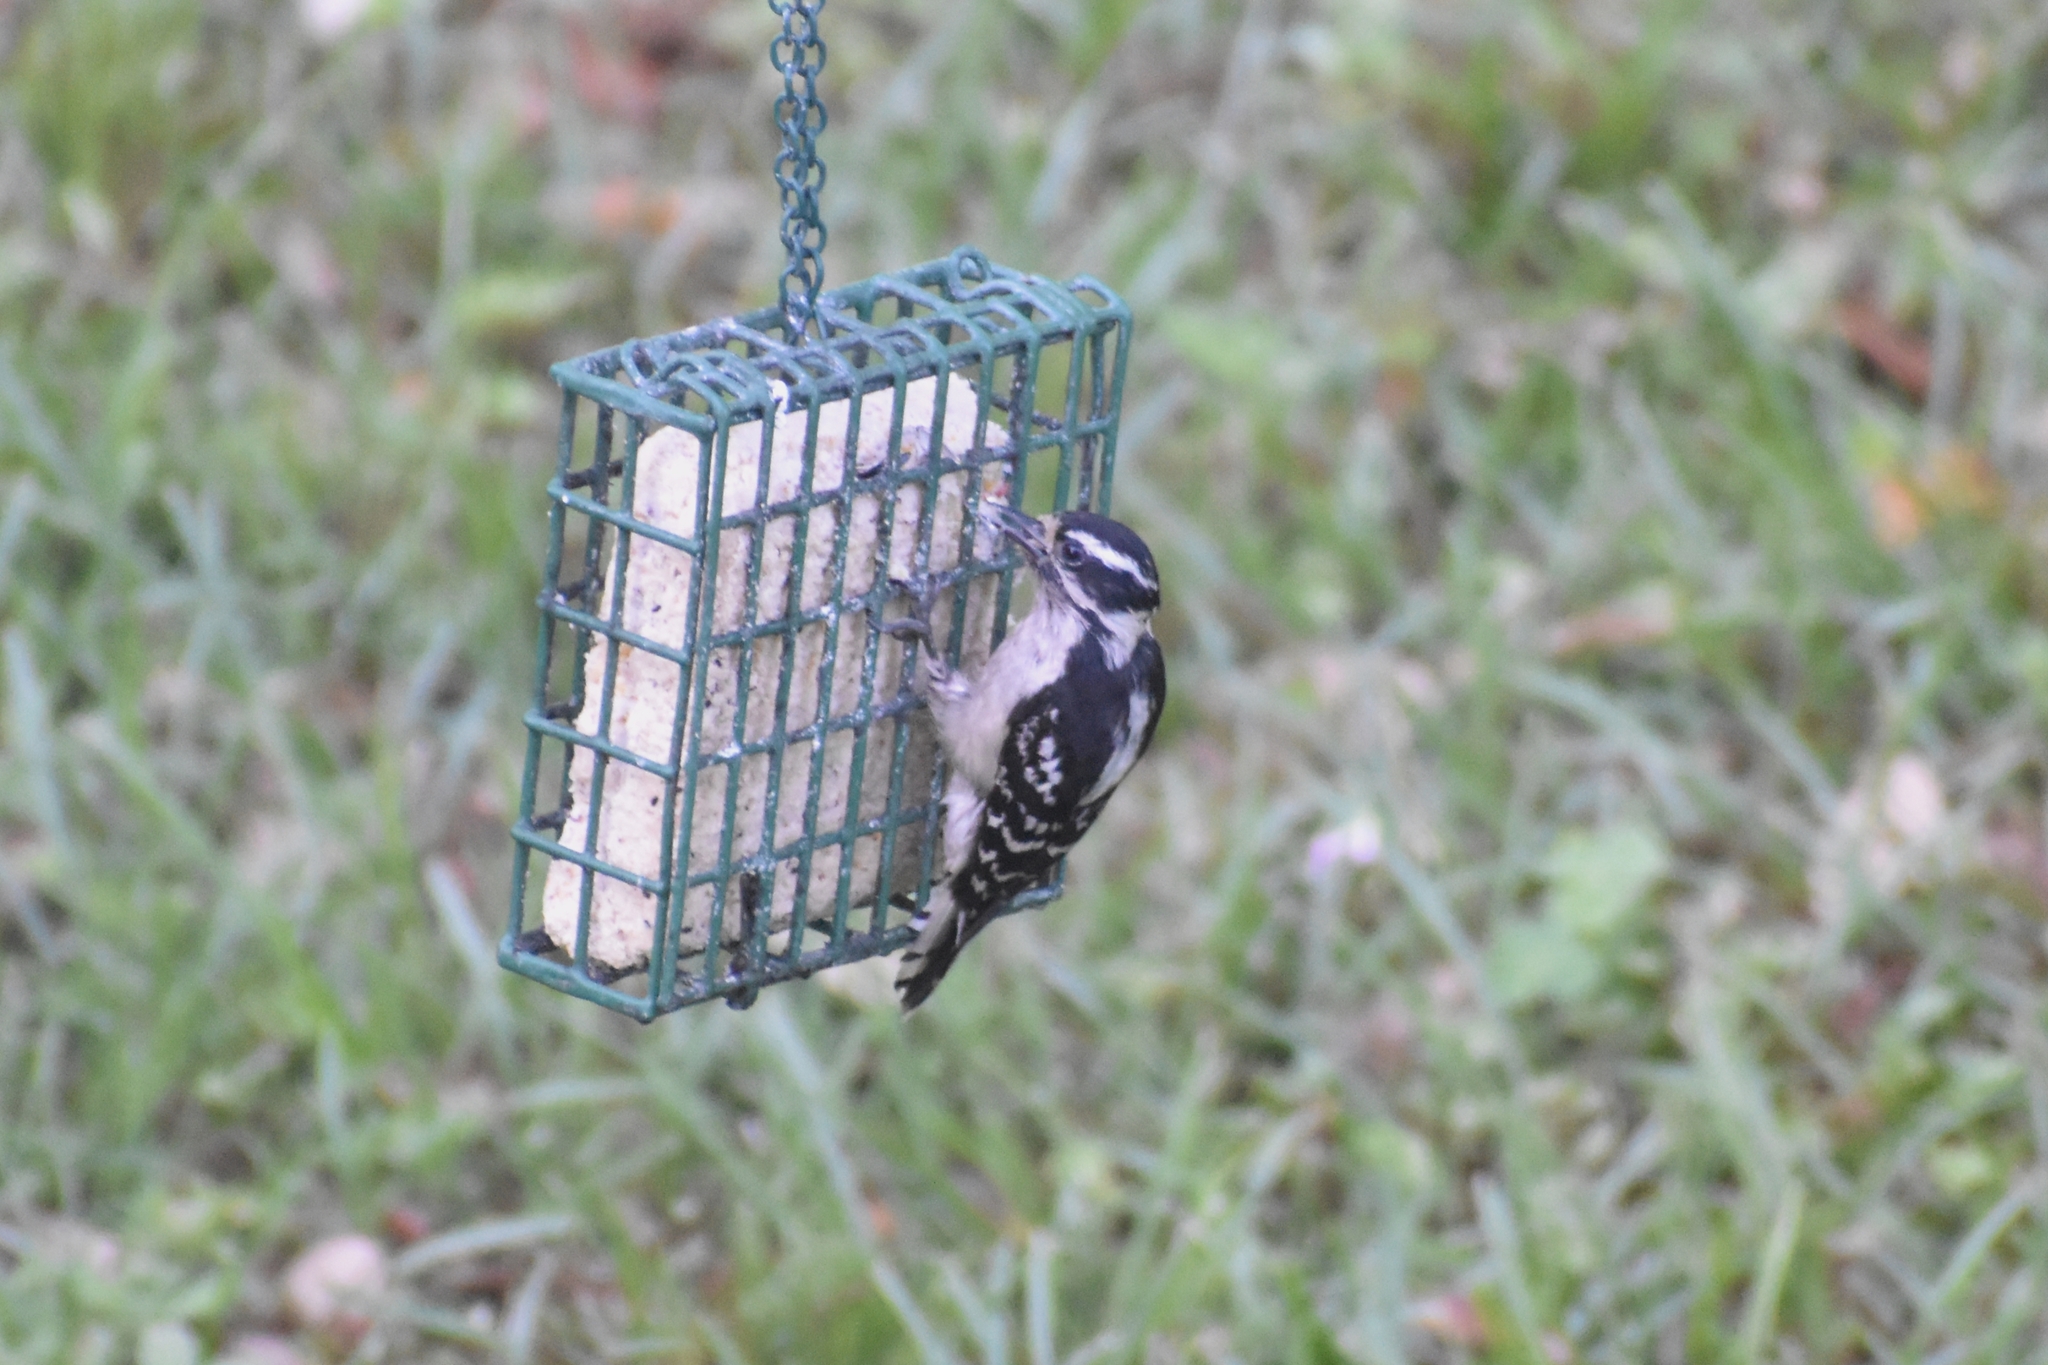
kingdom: Animalia
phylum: Chordata
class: Aves
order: Piciformes
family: Picidae
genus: Dryobates
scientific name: Dryobates pubescens
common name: Downy woodpecker
